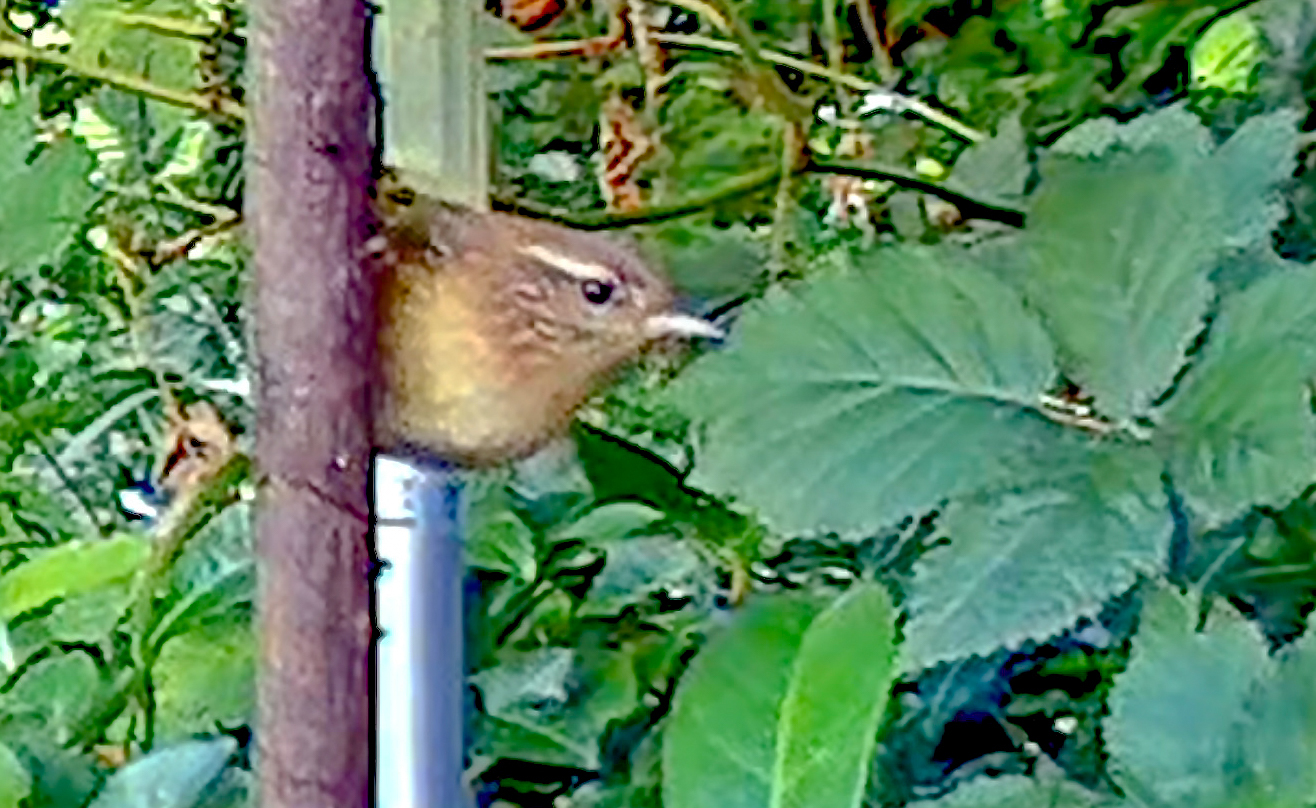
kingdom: Animalia
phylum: Chordata
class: Aves
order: Passeriformes
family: Troglodytidae
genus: Troglodytes
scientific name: Troglodytes troglodytes
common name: Eurasian wren
